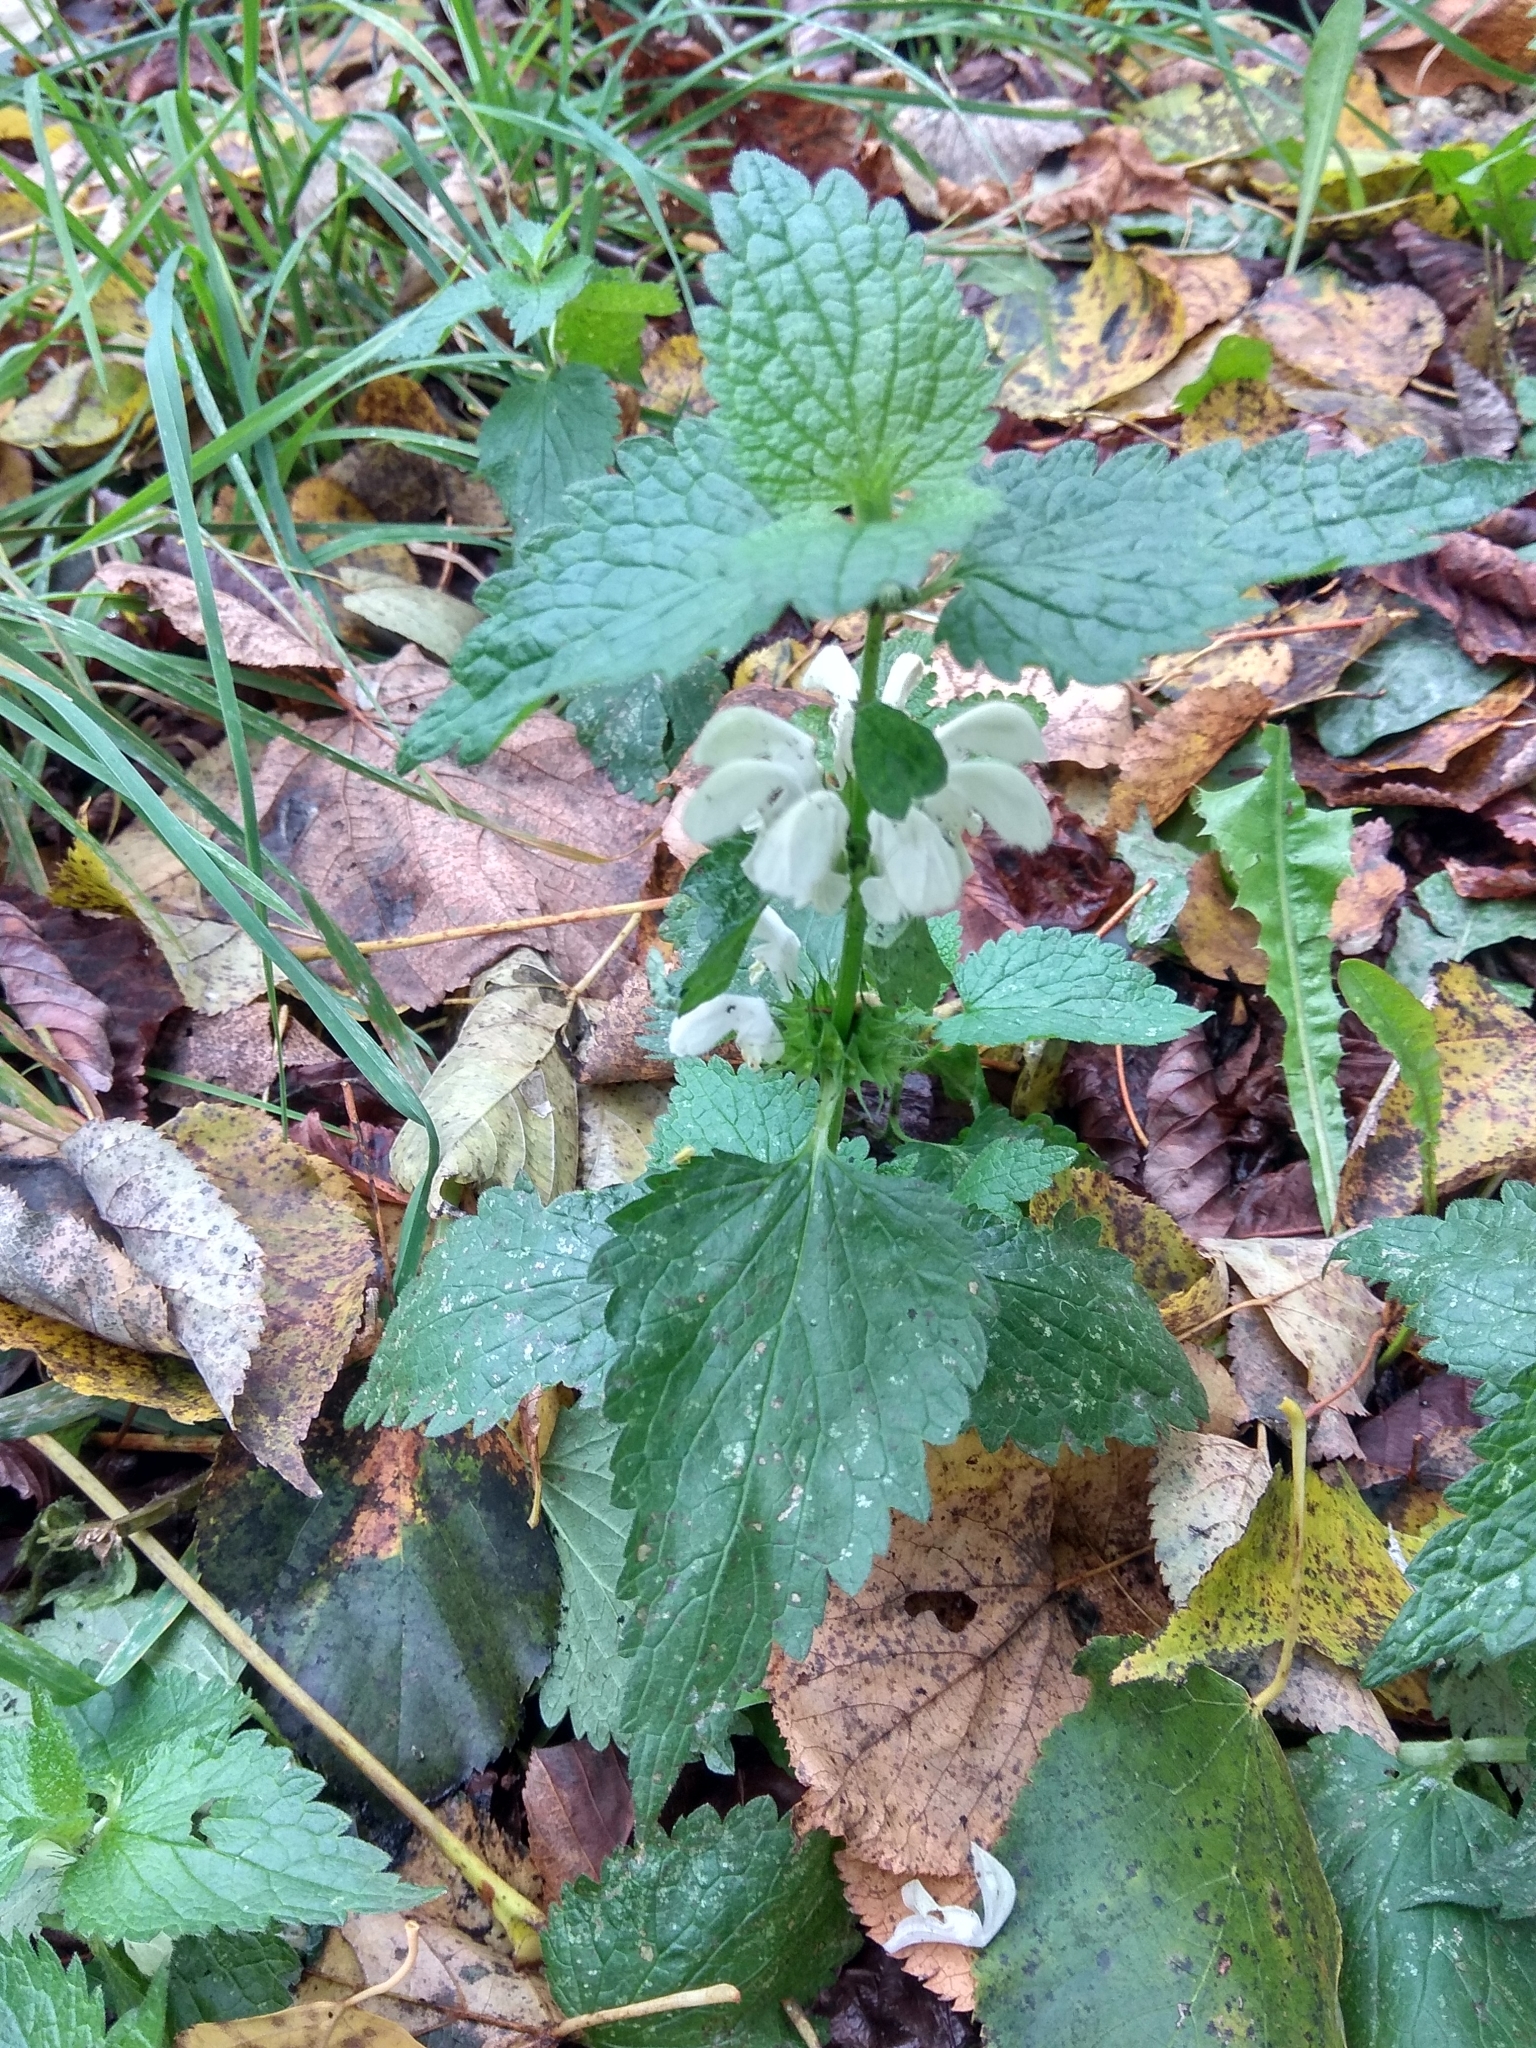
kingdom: Plantae
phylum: Tracheophyta
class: Magnoliopsida
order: Lamiales
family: Lamiaceae
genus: Lamium
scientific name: Lamium album
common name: White dead-nettle
